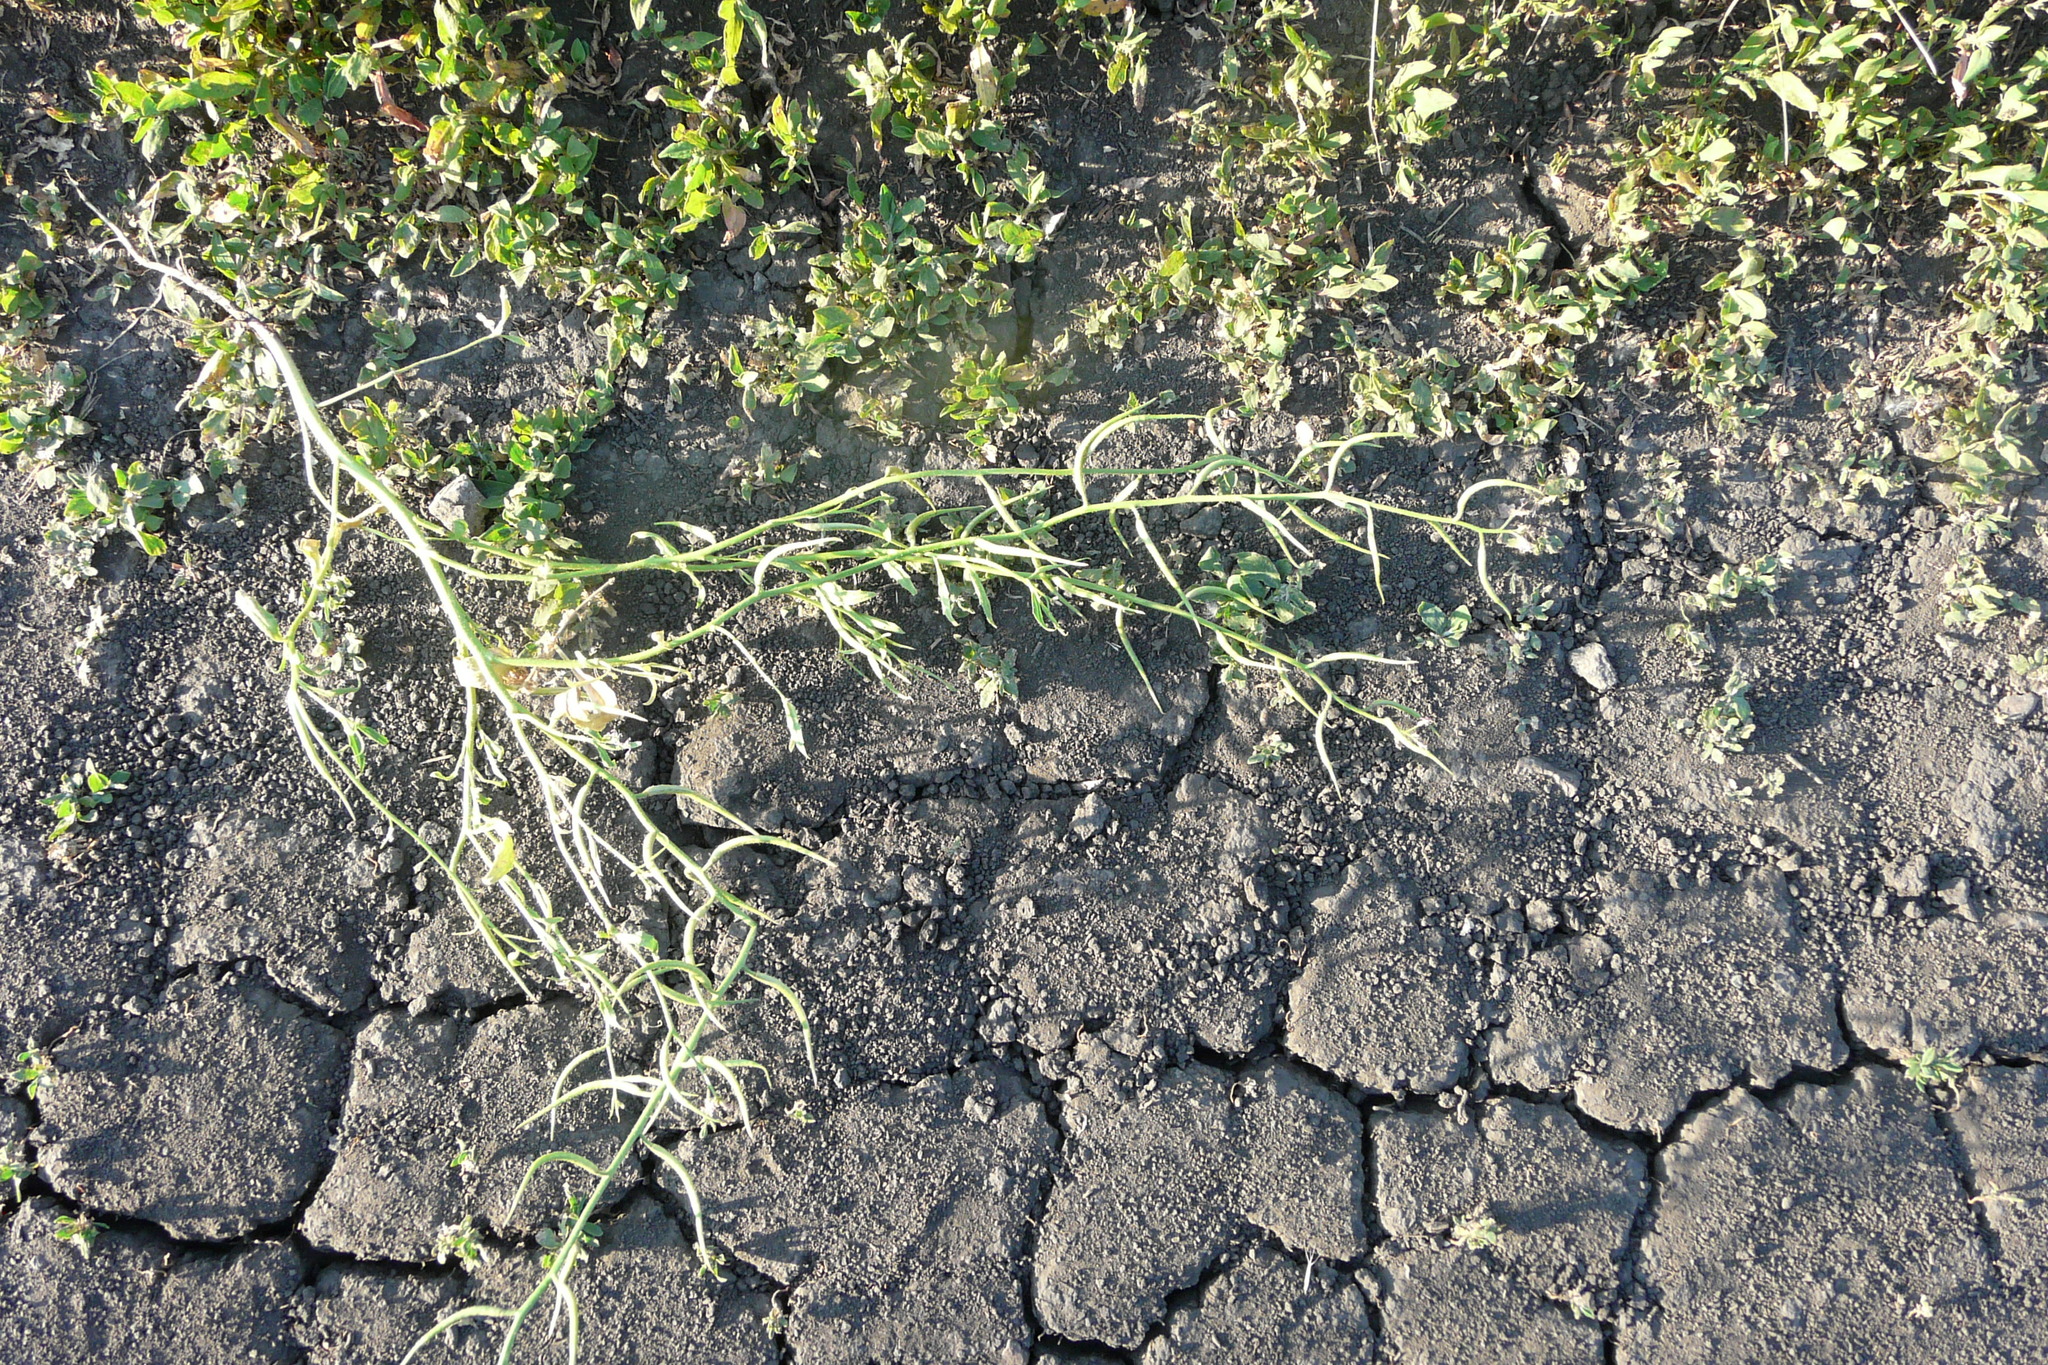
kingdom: Plantae
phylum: Tracheophyta
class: Magnoliopsida
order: Brassicales
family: Brassicaceae
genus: Chorispora
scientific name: Chorispora tenella
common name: Crossflower
